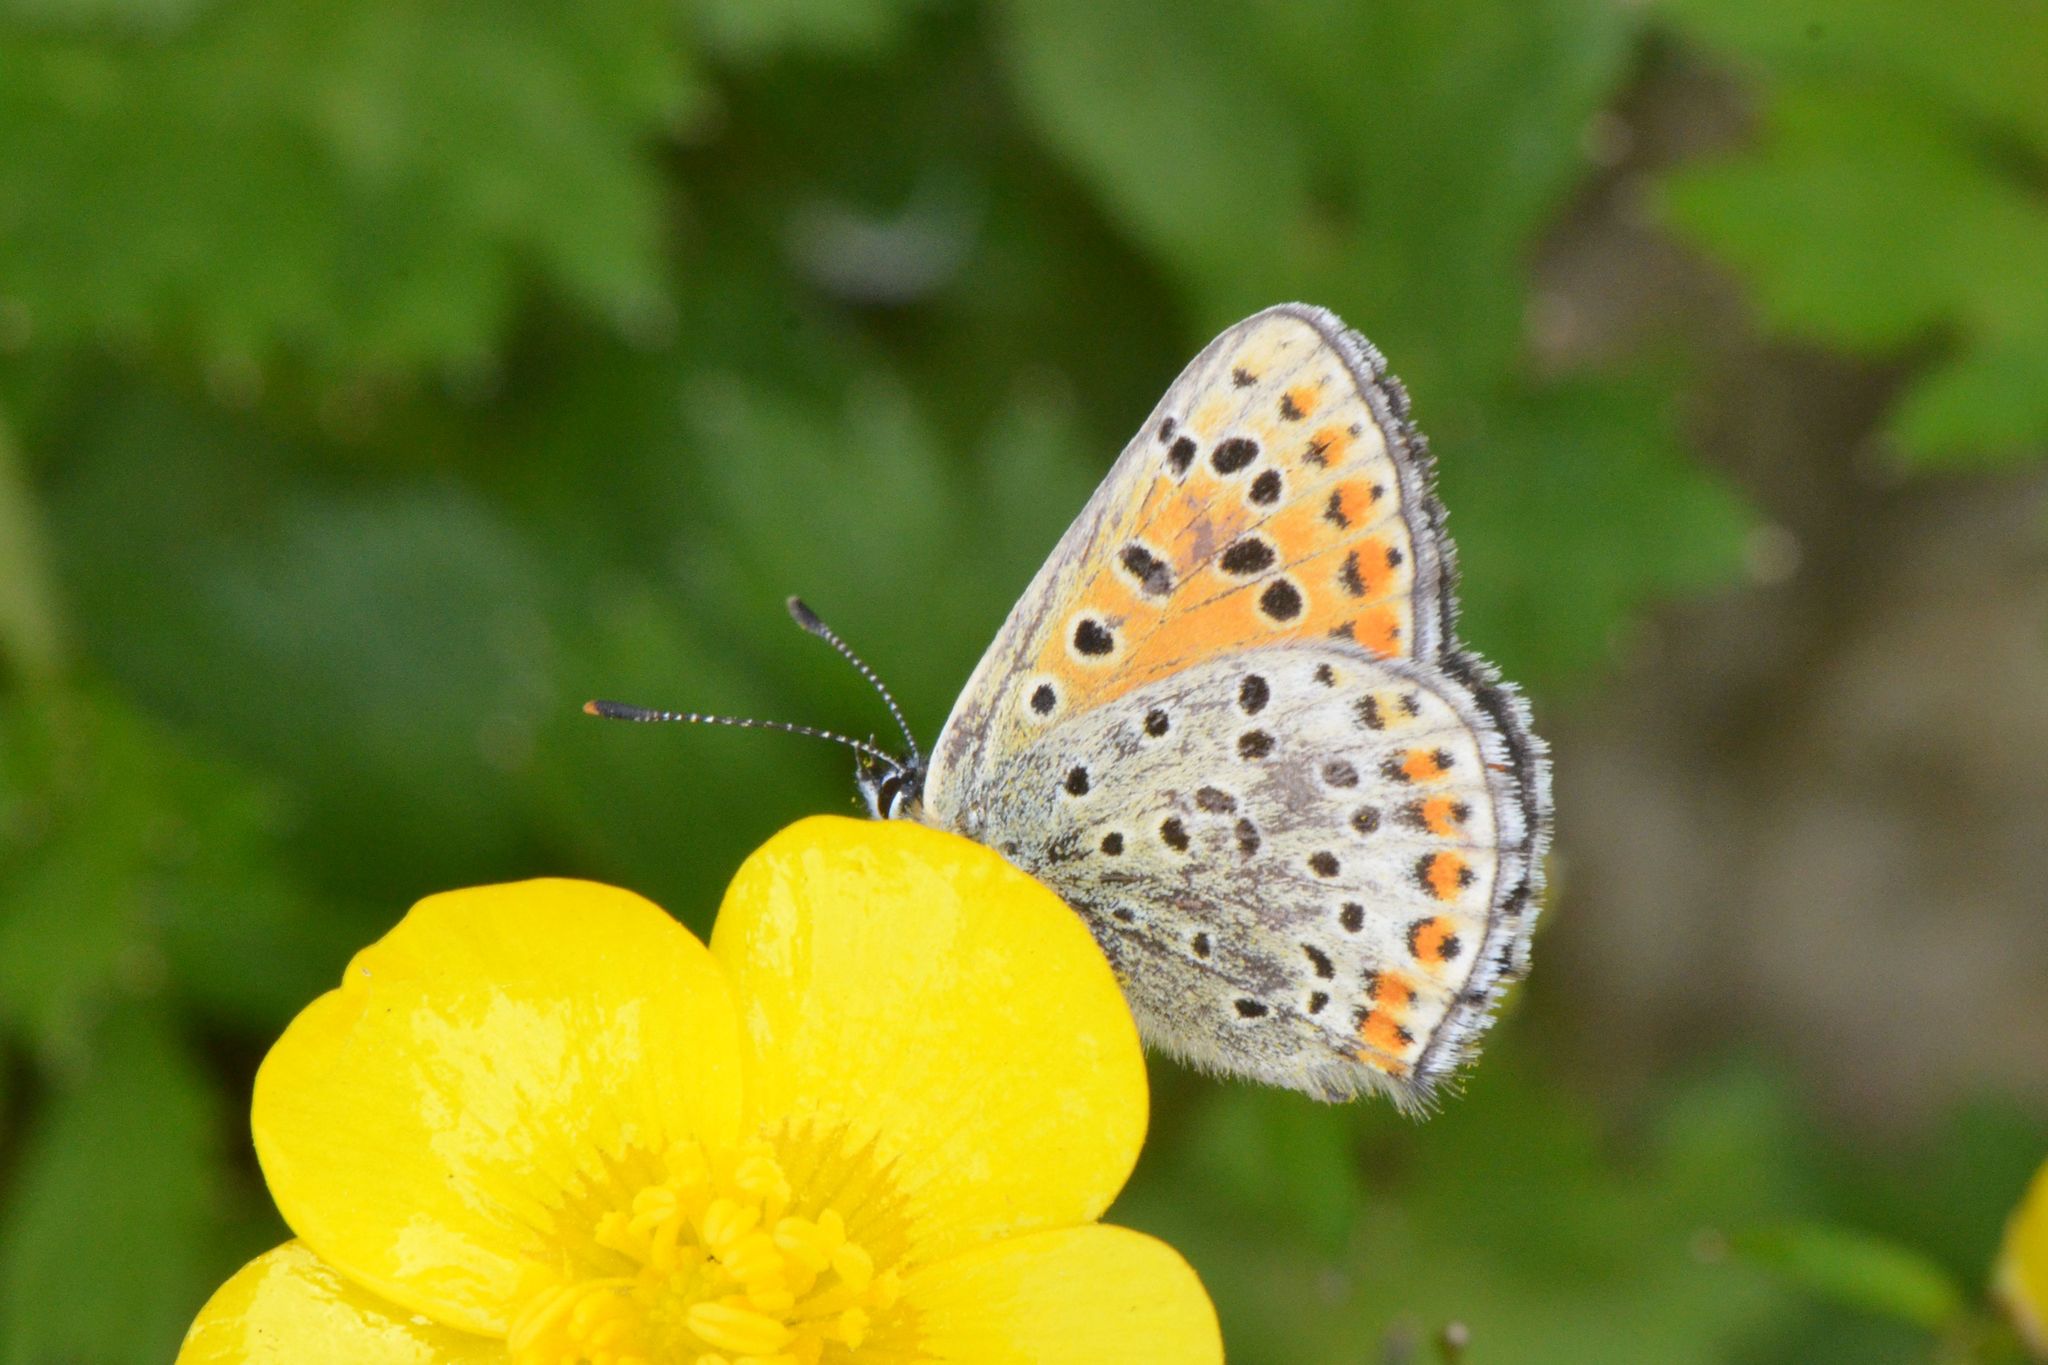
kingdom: Animalia
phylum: Arthropoda
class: Insecta
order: Lepidoptera
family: Lycaenidae
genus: Loweia
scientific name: Loweia tityrus
